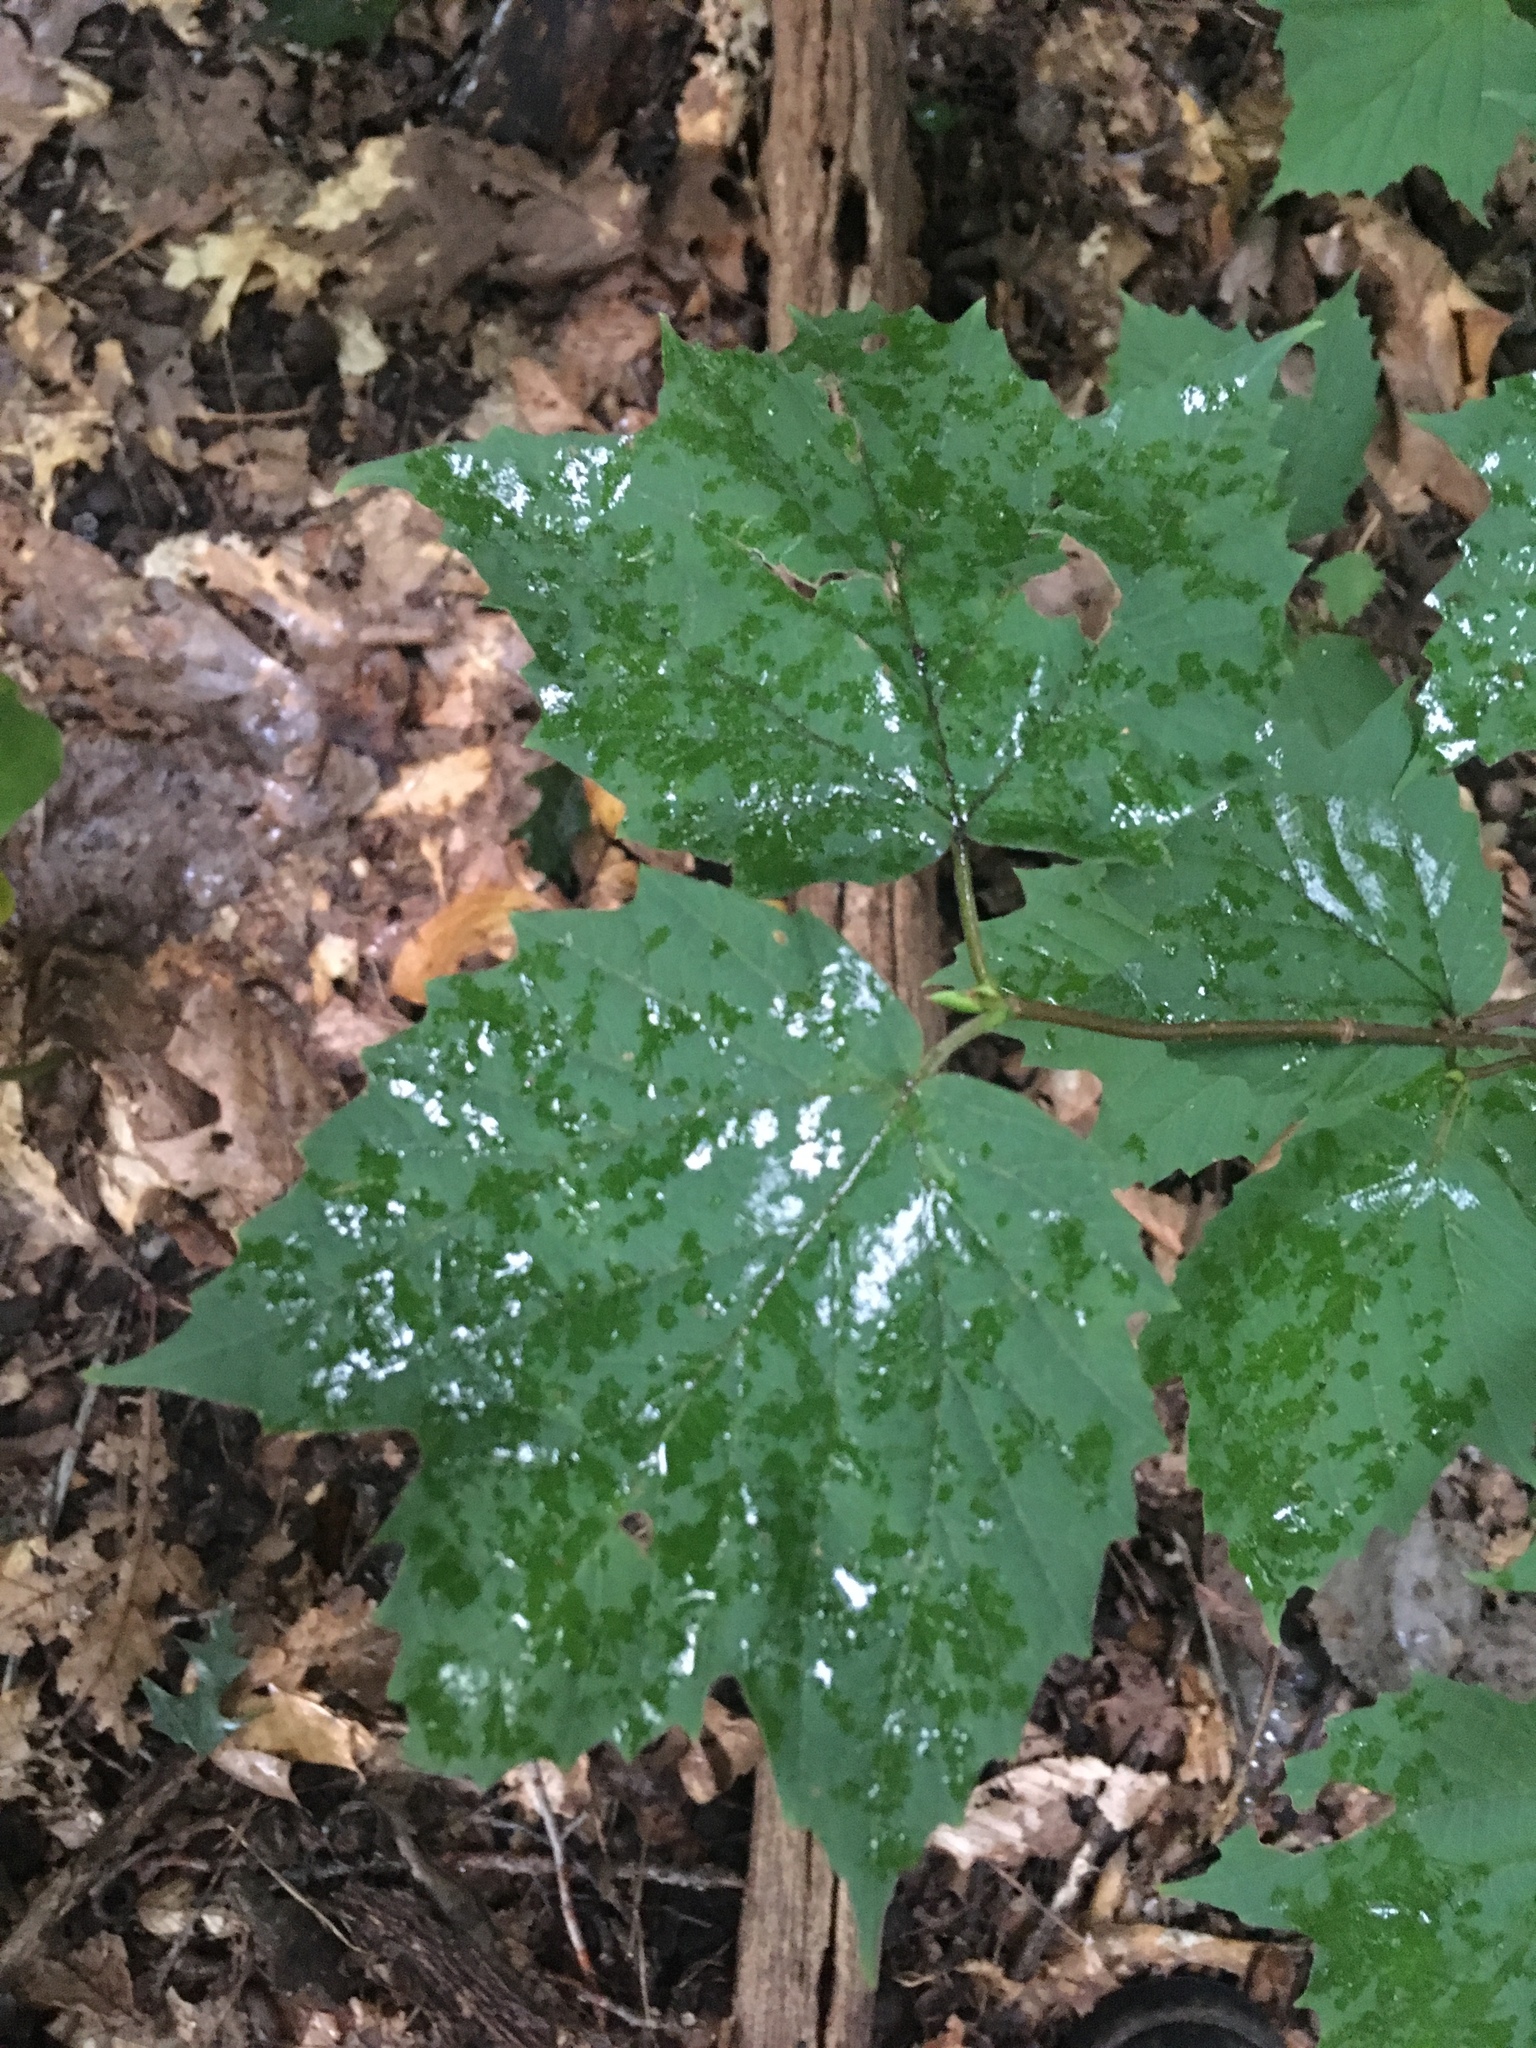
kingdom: Plantae
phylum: Tracheophyta
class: Magnoliopsida
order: Dipsacales
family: Viburnaceae
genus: Viburnum
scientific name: Viburnum acerifolium
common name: Dockmackie
